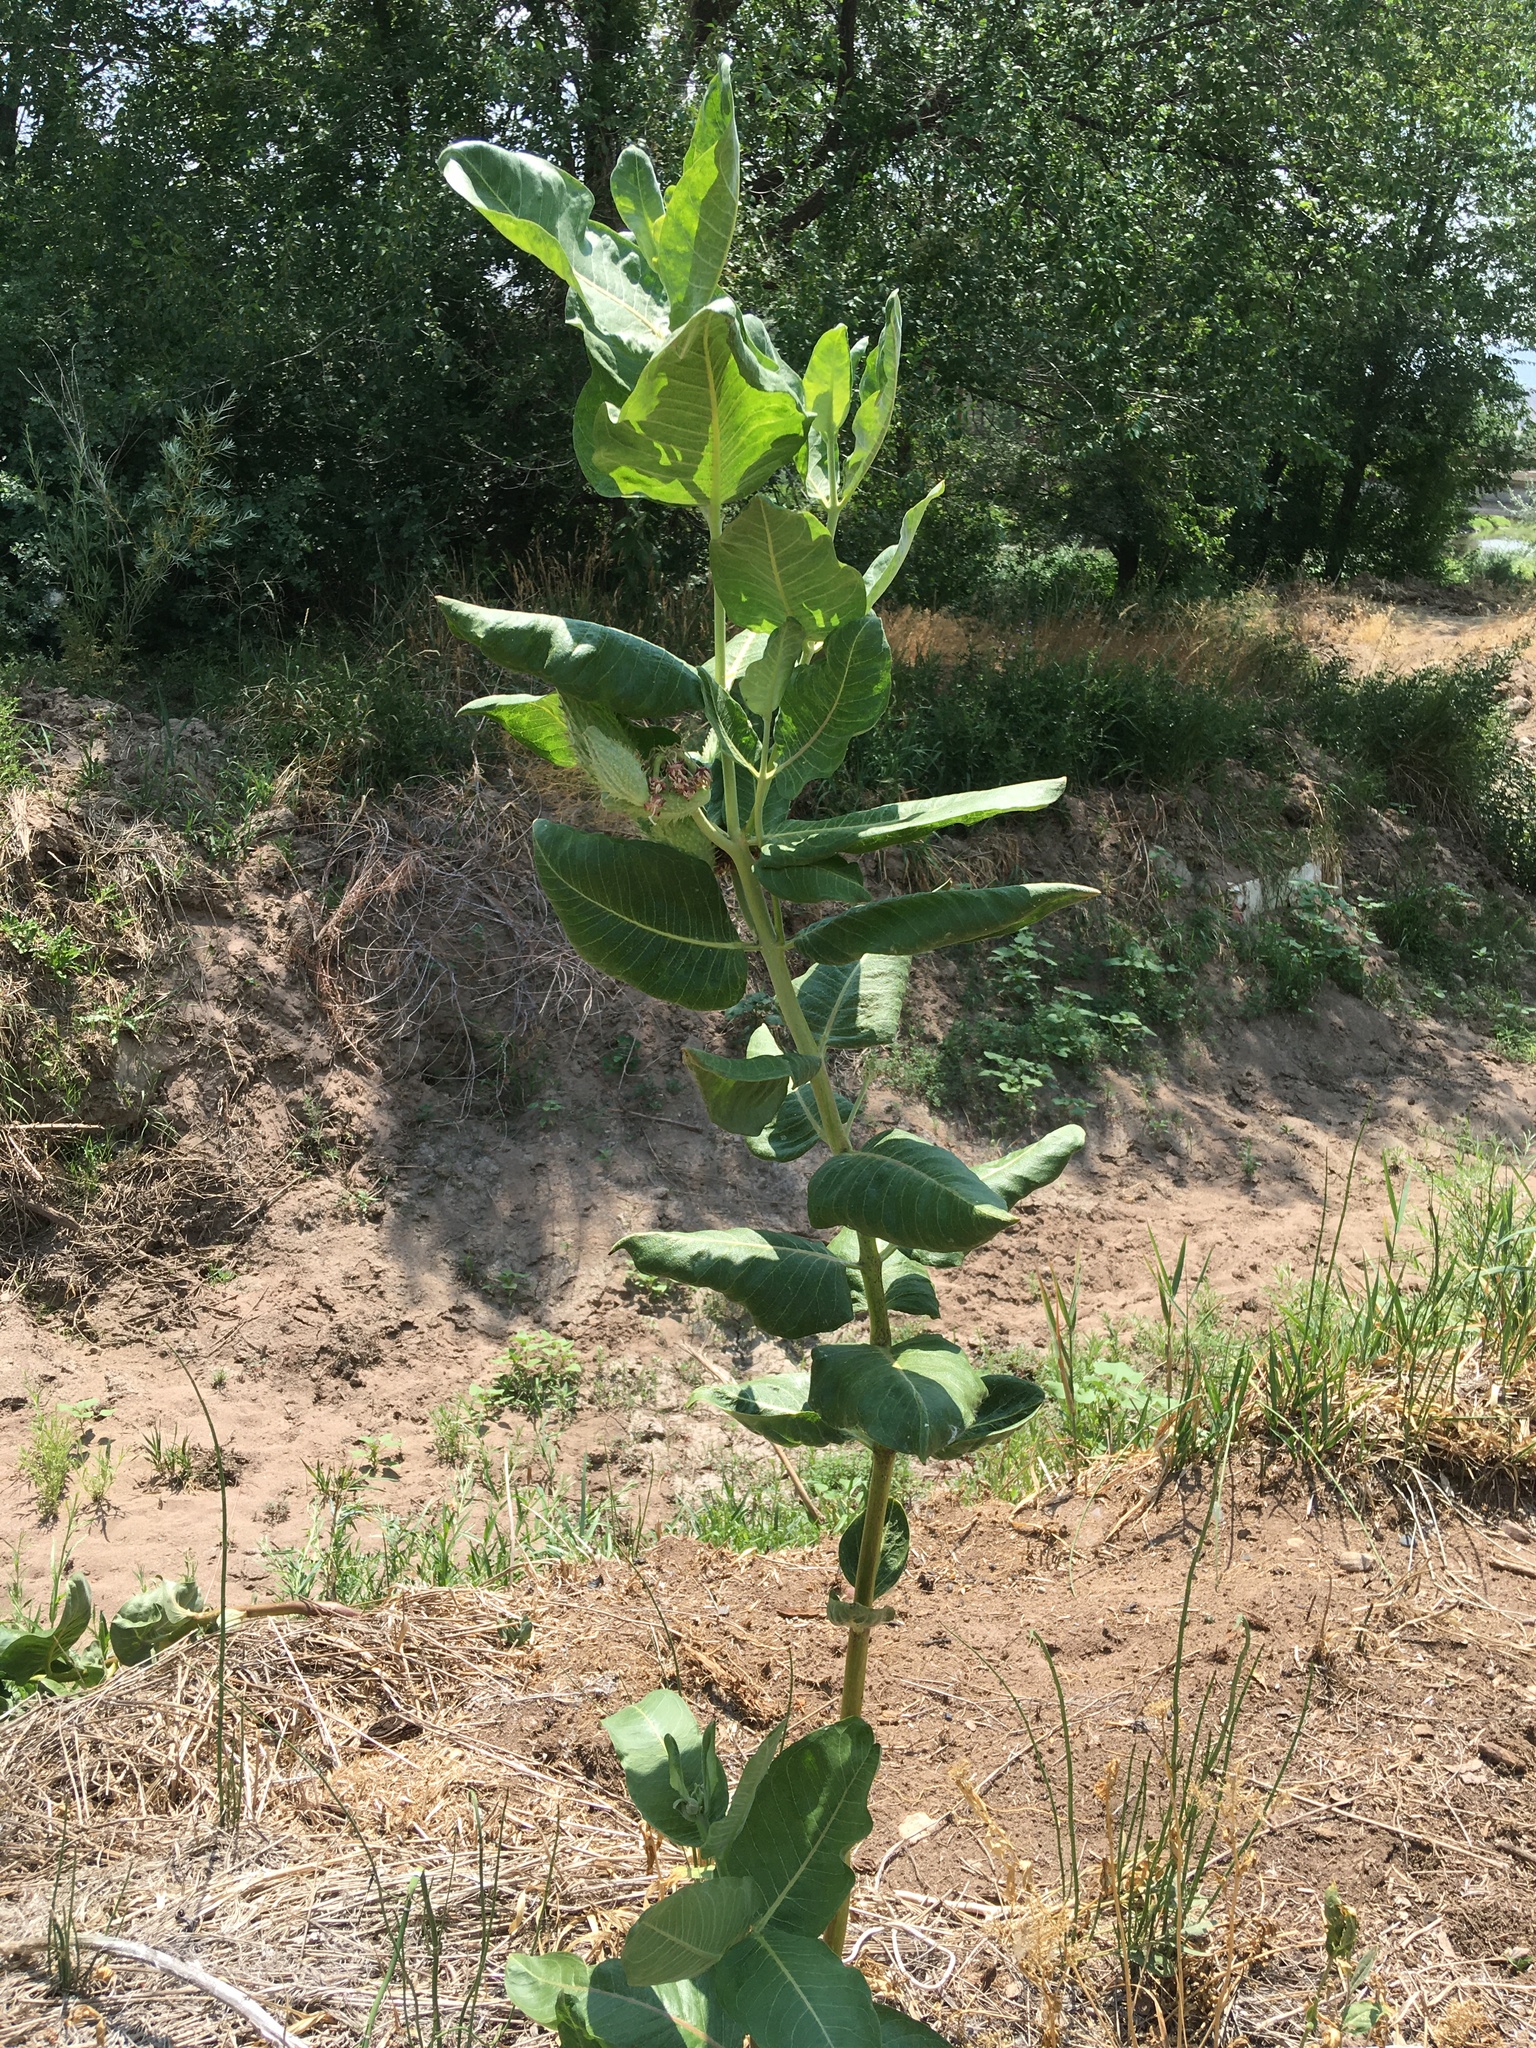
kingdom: Plantae
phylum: Tracheophyta
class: Magnoliopsida
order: Gentianales
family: Apocynaceae
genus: Asclepias
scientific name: Asclepias speciosa
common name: Showy milkweed
